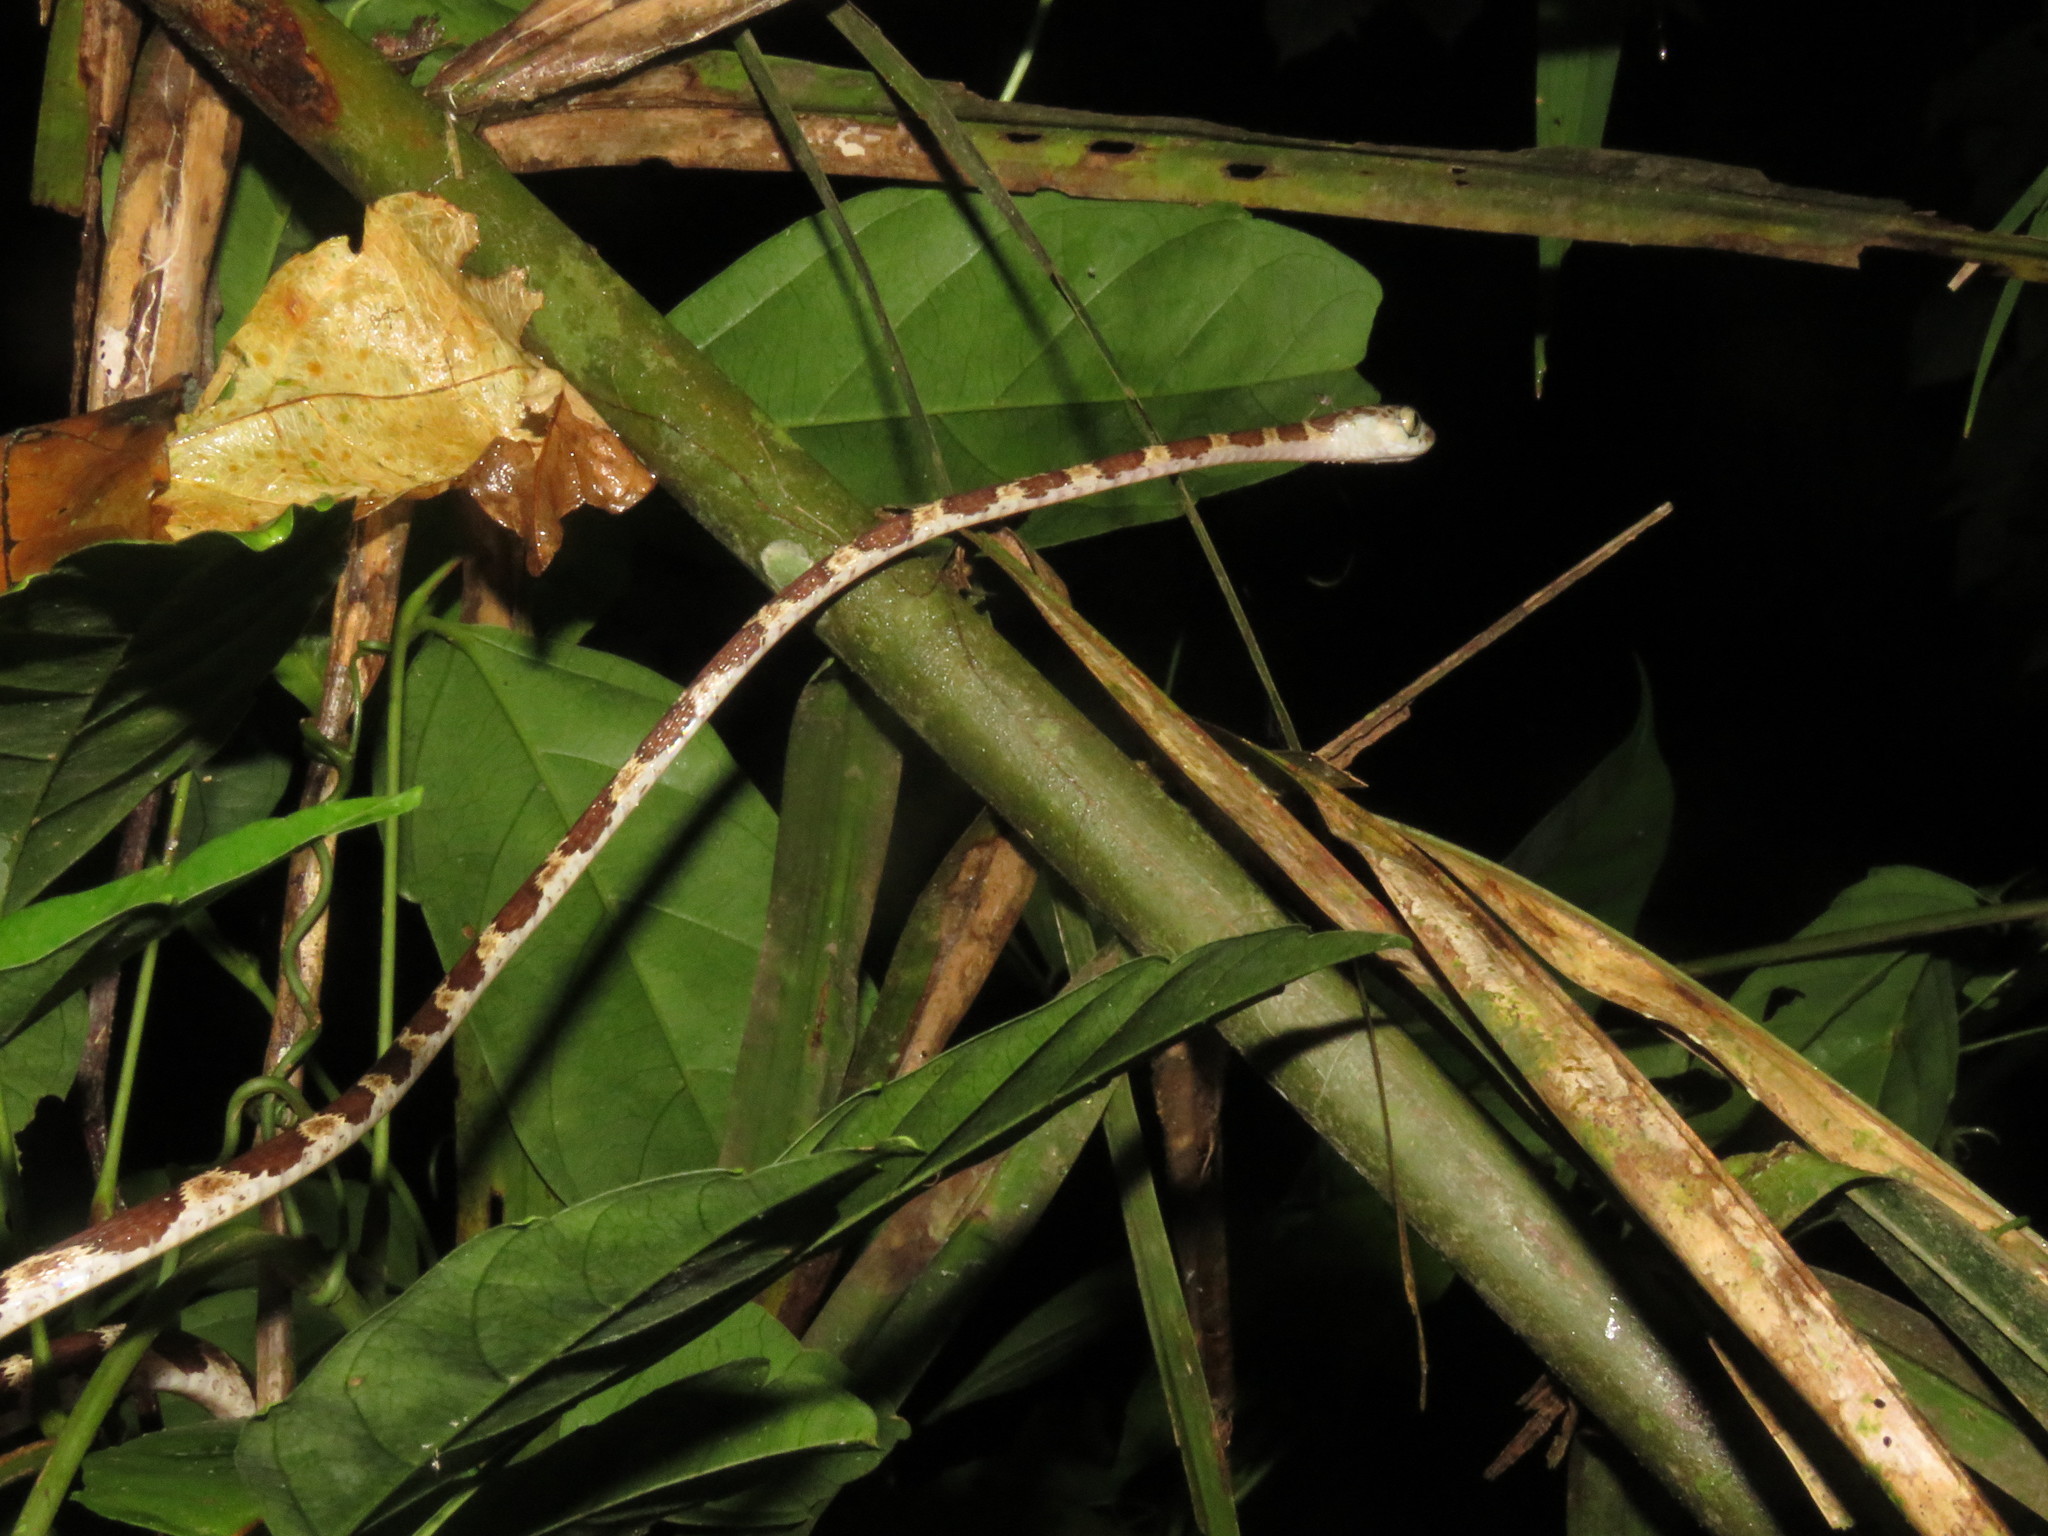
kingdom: Animalia
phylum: Chordata
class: Squamata
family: Colubridae
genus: Imantodes
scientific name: Imantodes cenchoa
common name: Blunthead tree snake
